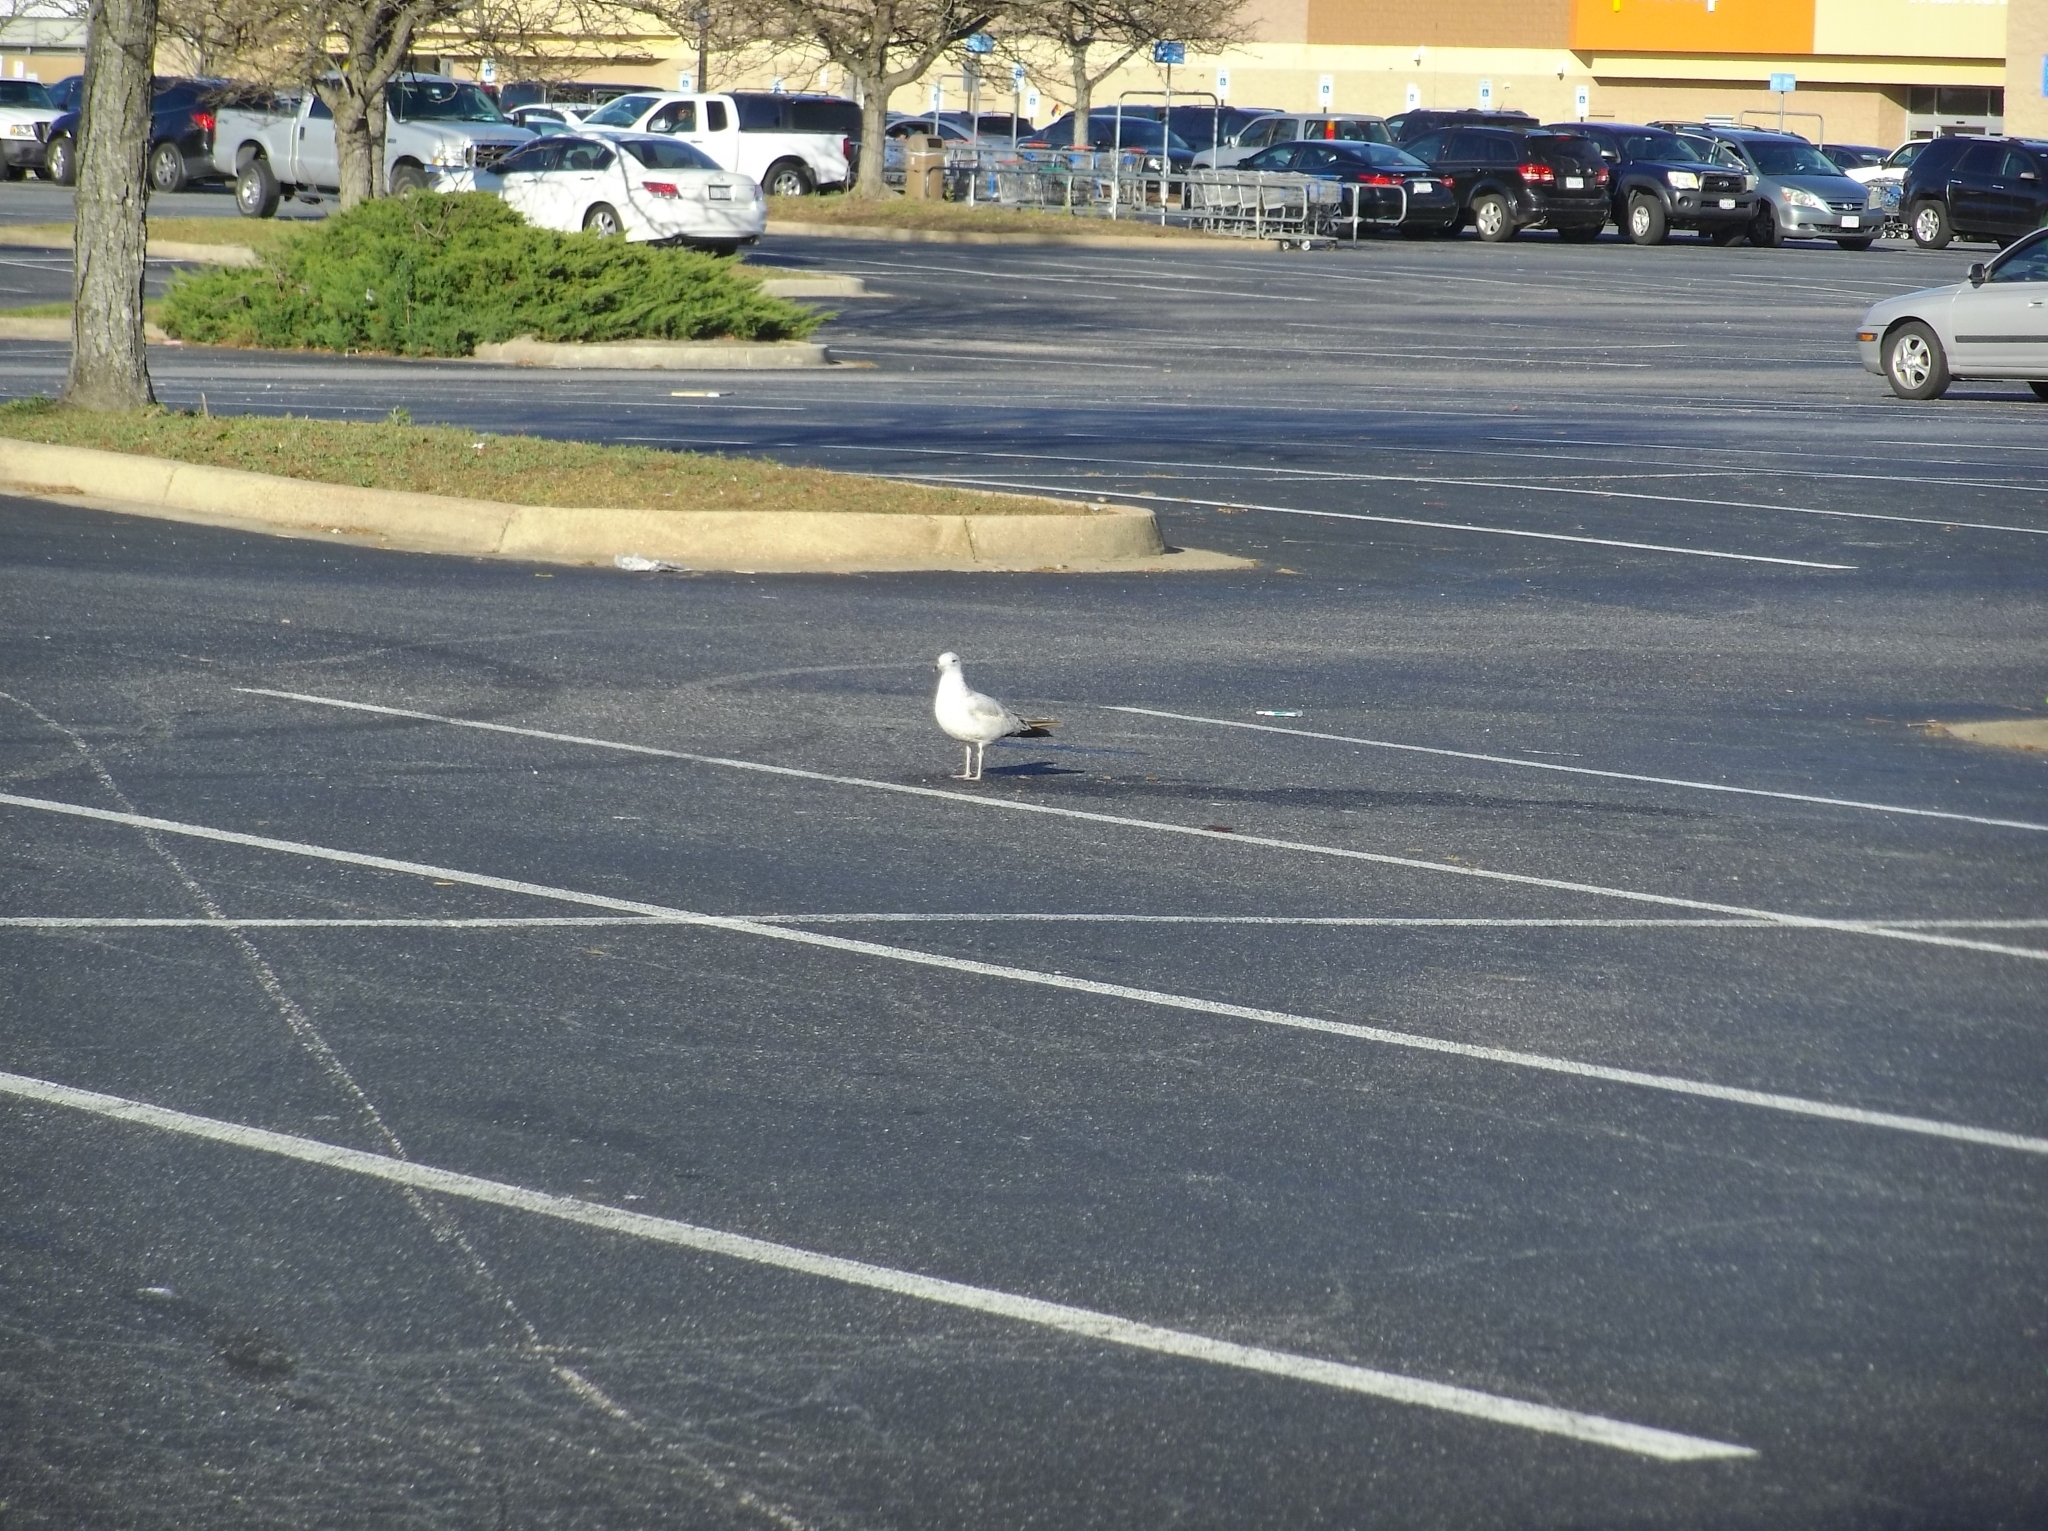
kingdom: Animalia
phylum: Chordata
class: Aves
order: Charadriiformes
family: Laridae
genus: Larus
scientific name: Larus delawarensis
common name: Ring-billed gull
